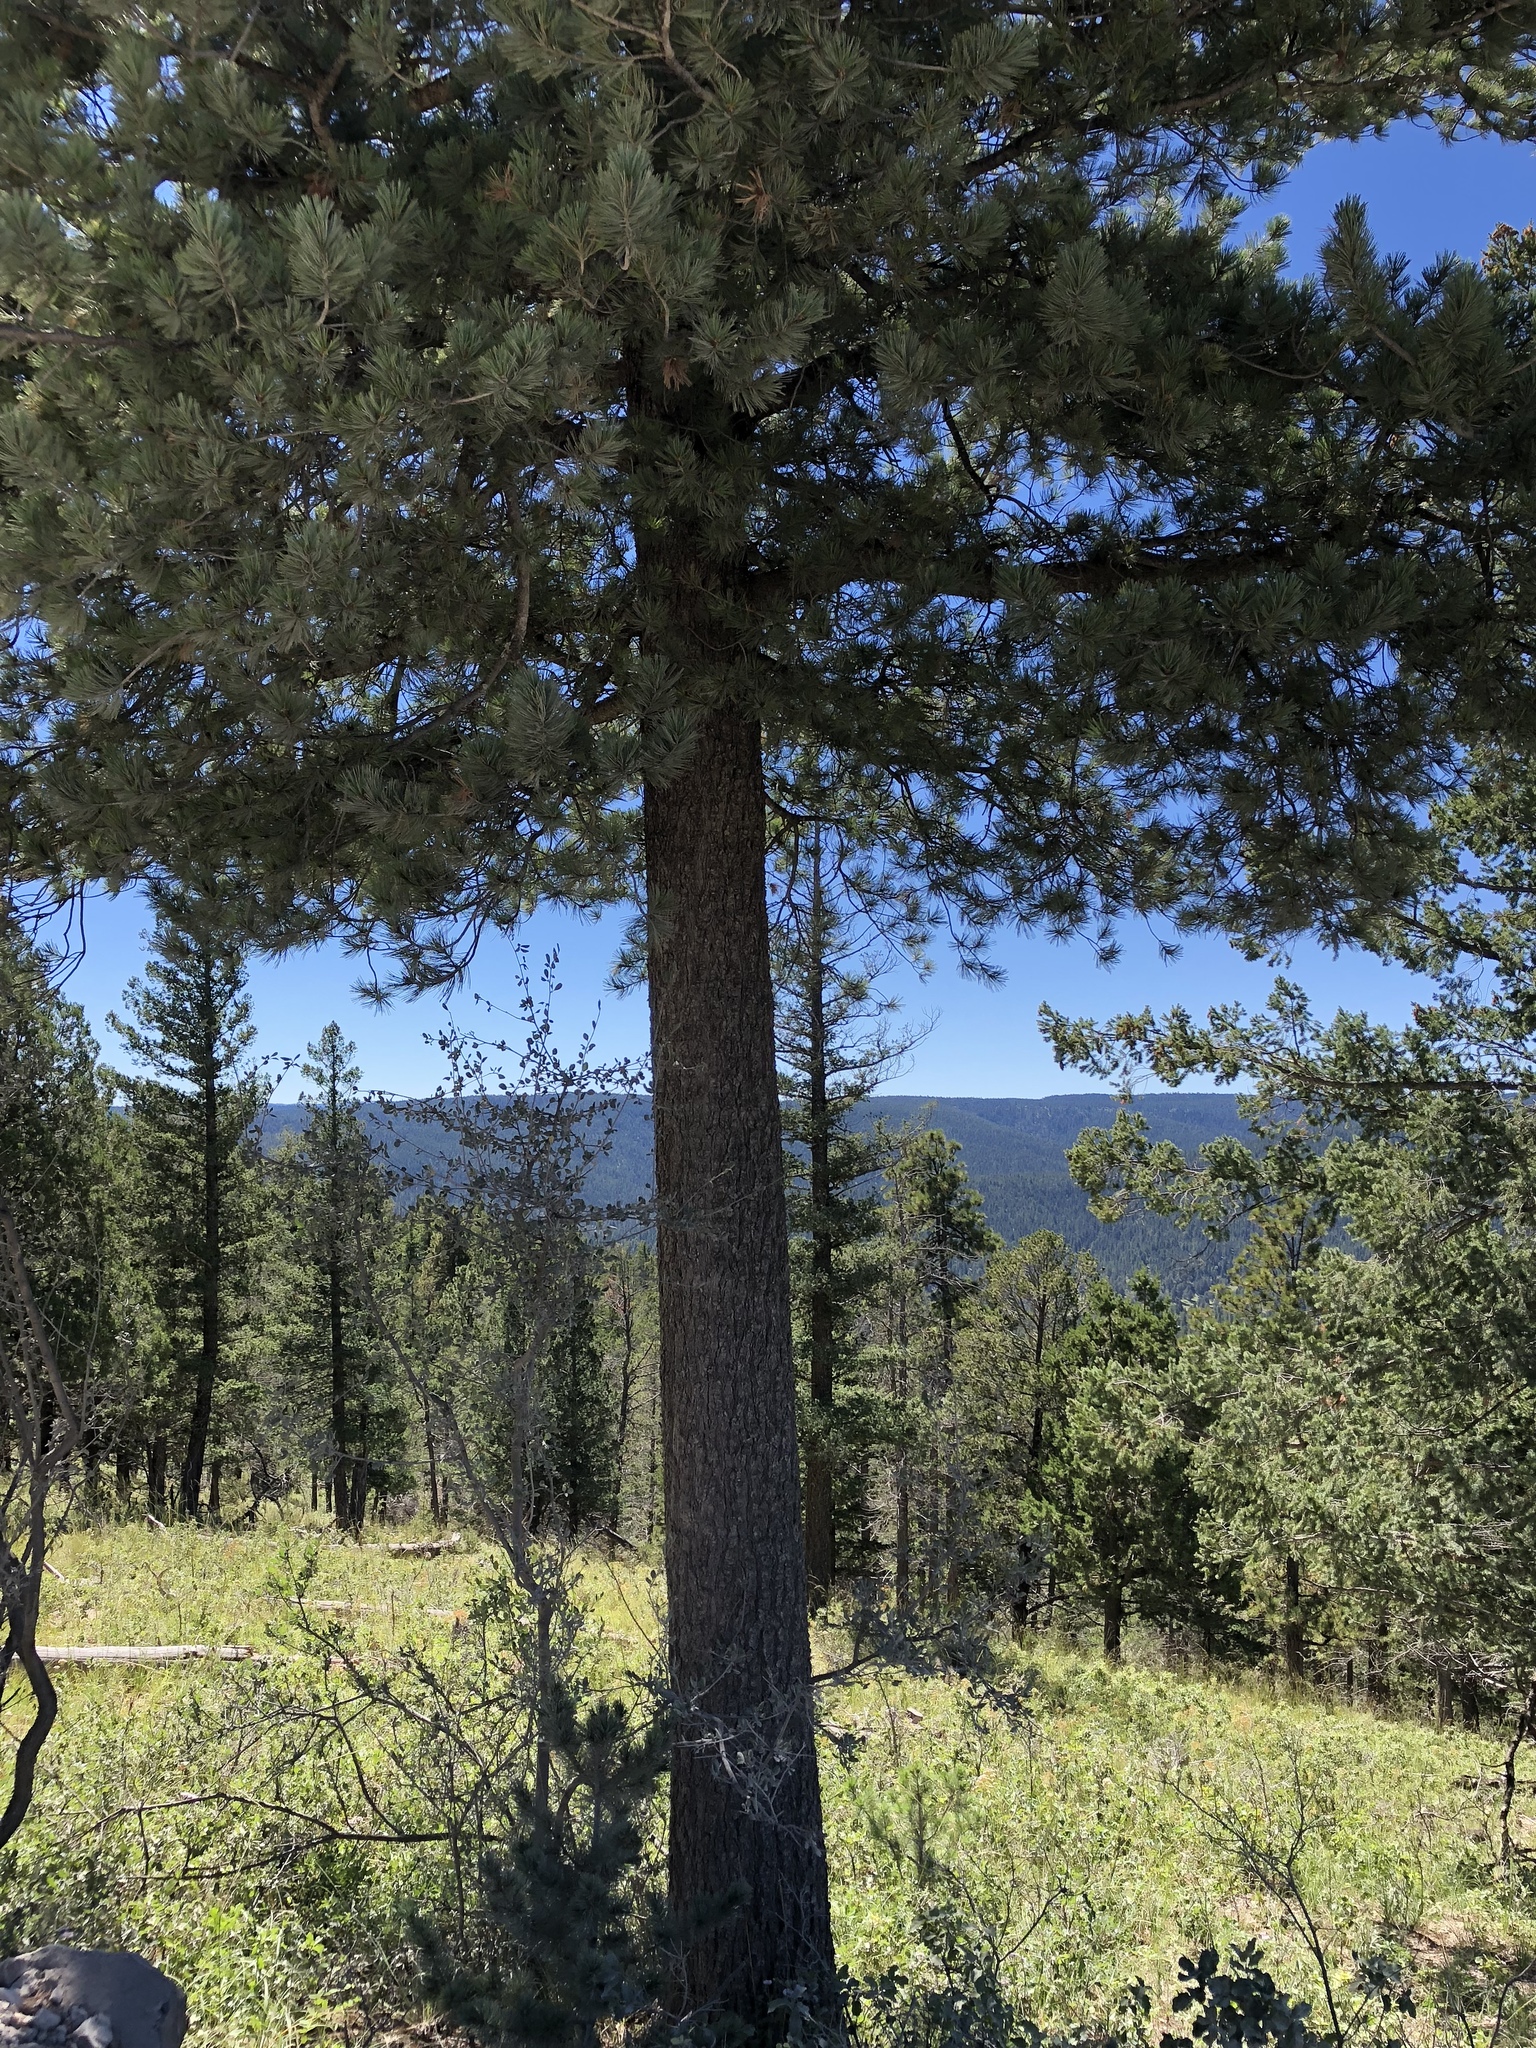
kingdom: Plantae
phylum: Tracheophyta
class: Pinopsida
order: Pinales
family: Pinaceae
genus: Pinus
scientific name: Pinus strobiformis
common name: Southwestern white pine
